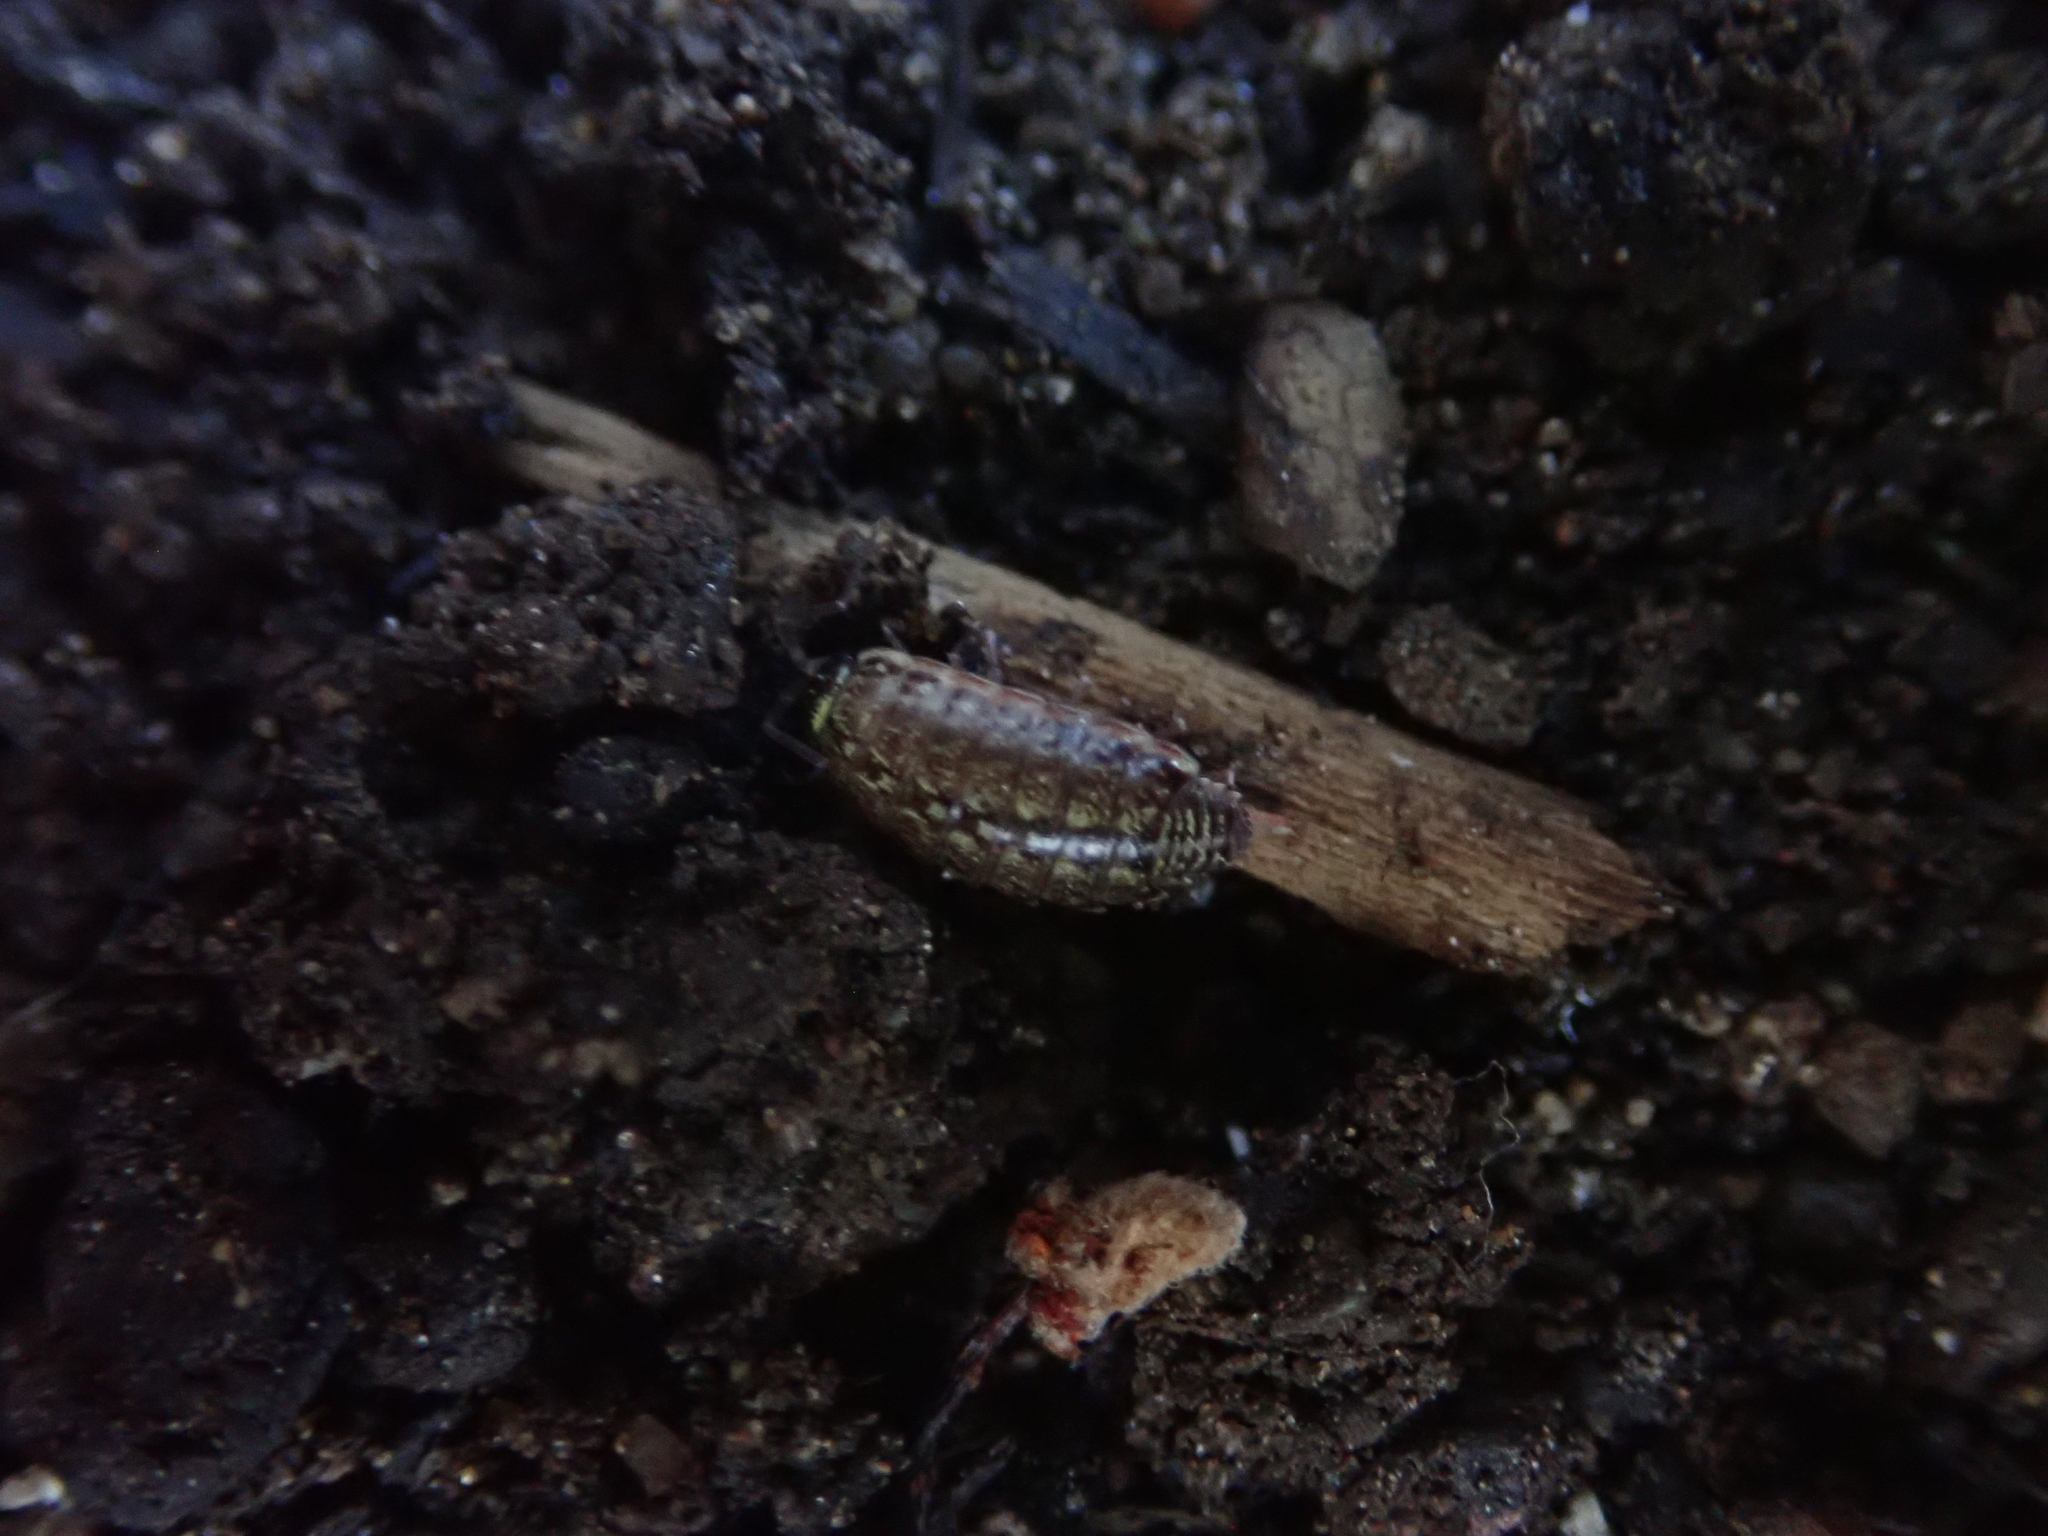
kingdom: Animalia
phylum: Arthropoda
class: Malacostraca
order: Isopoda
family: Philosciidae
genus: Philoscia
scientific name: Philoscia muscorum
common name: Common striped woodlouse
